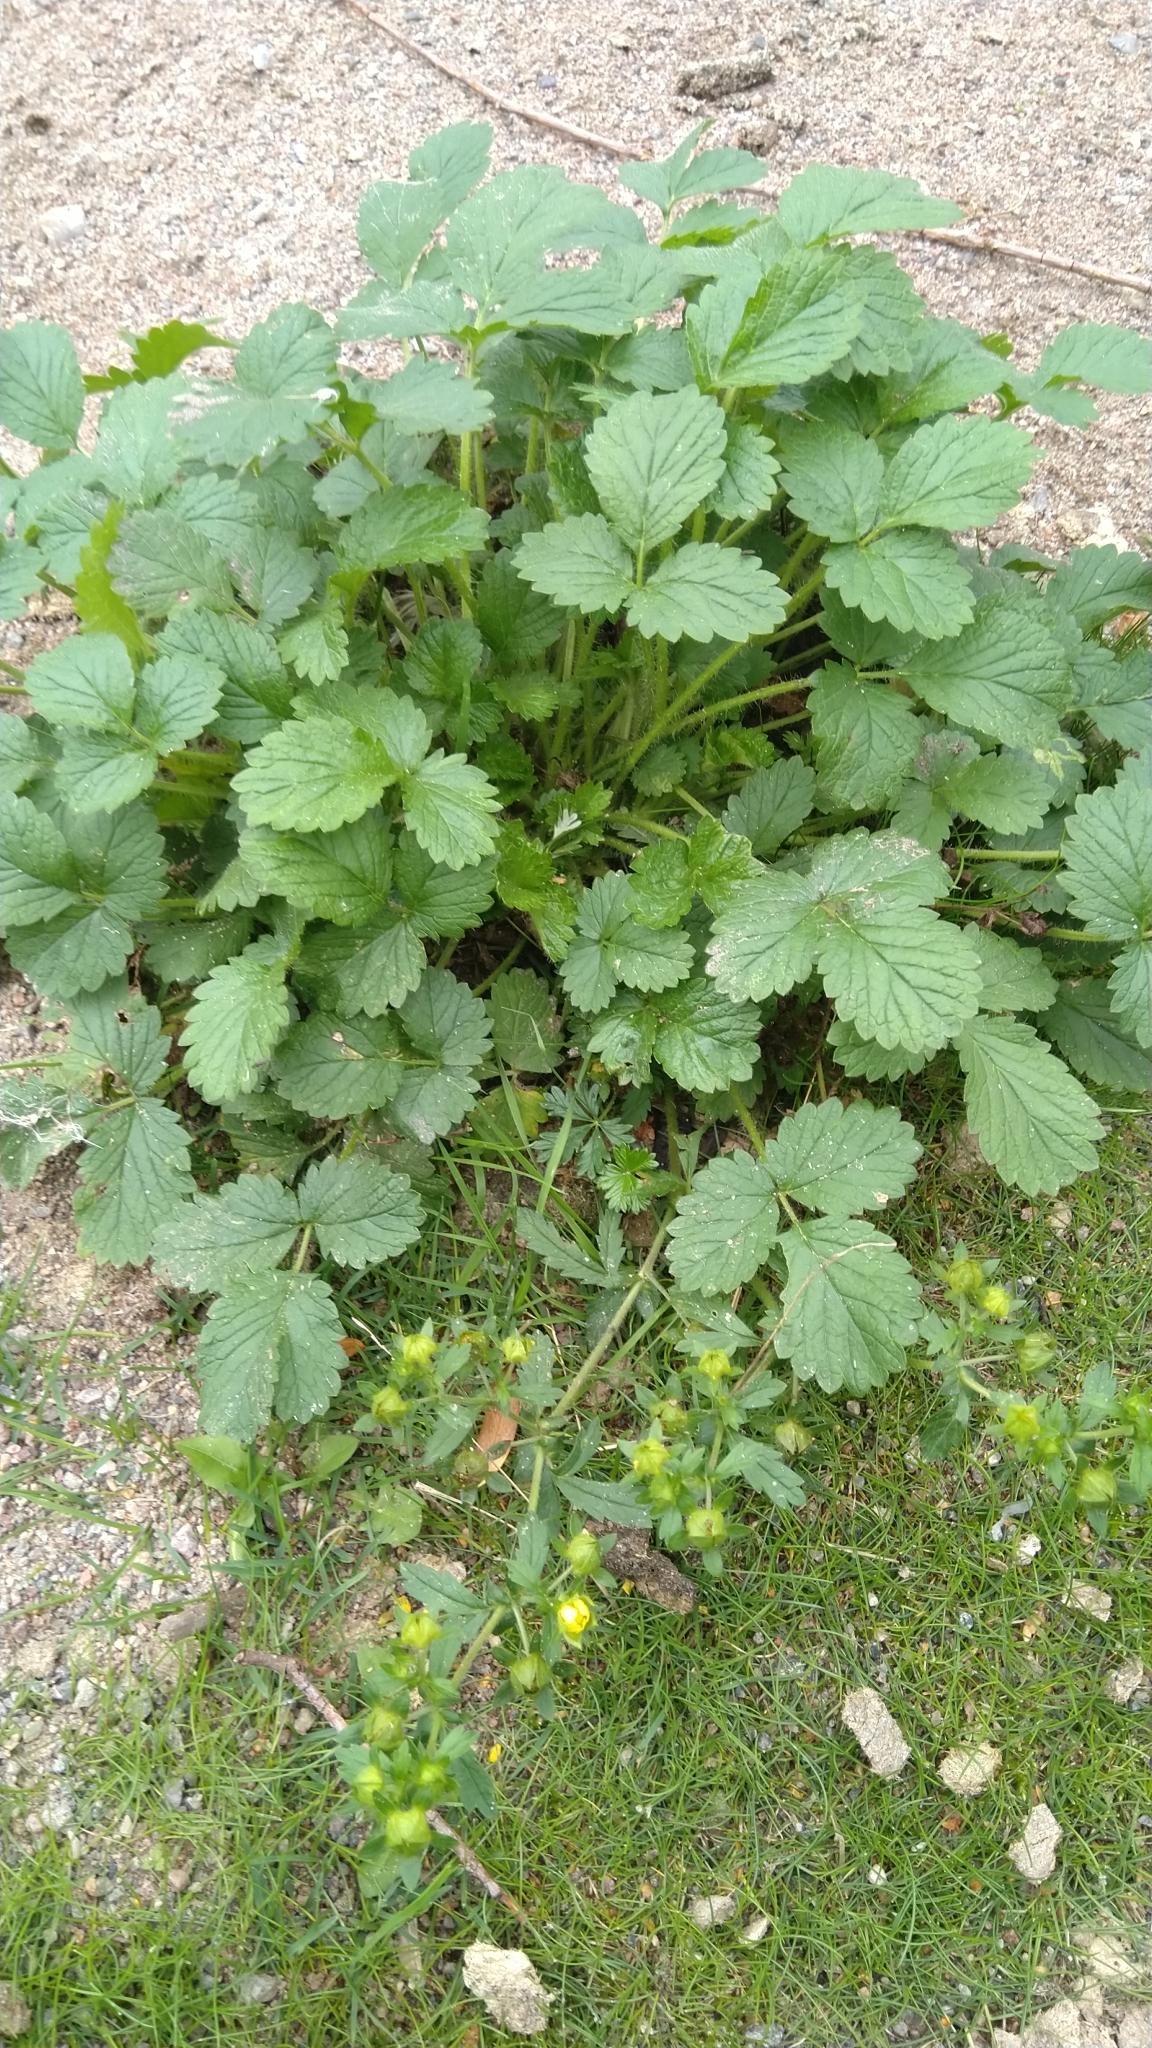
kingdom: Plantae
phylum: Tracheophyta
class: Magnoliopsida
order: Rosales
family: Rosaceae
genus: Potentilla
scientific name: Potentilla norvegica
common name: Ternate-leaved cinquefoil
